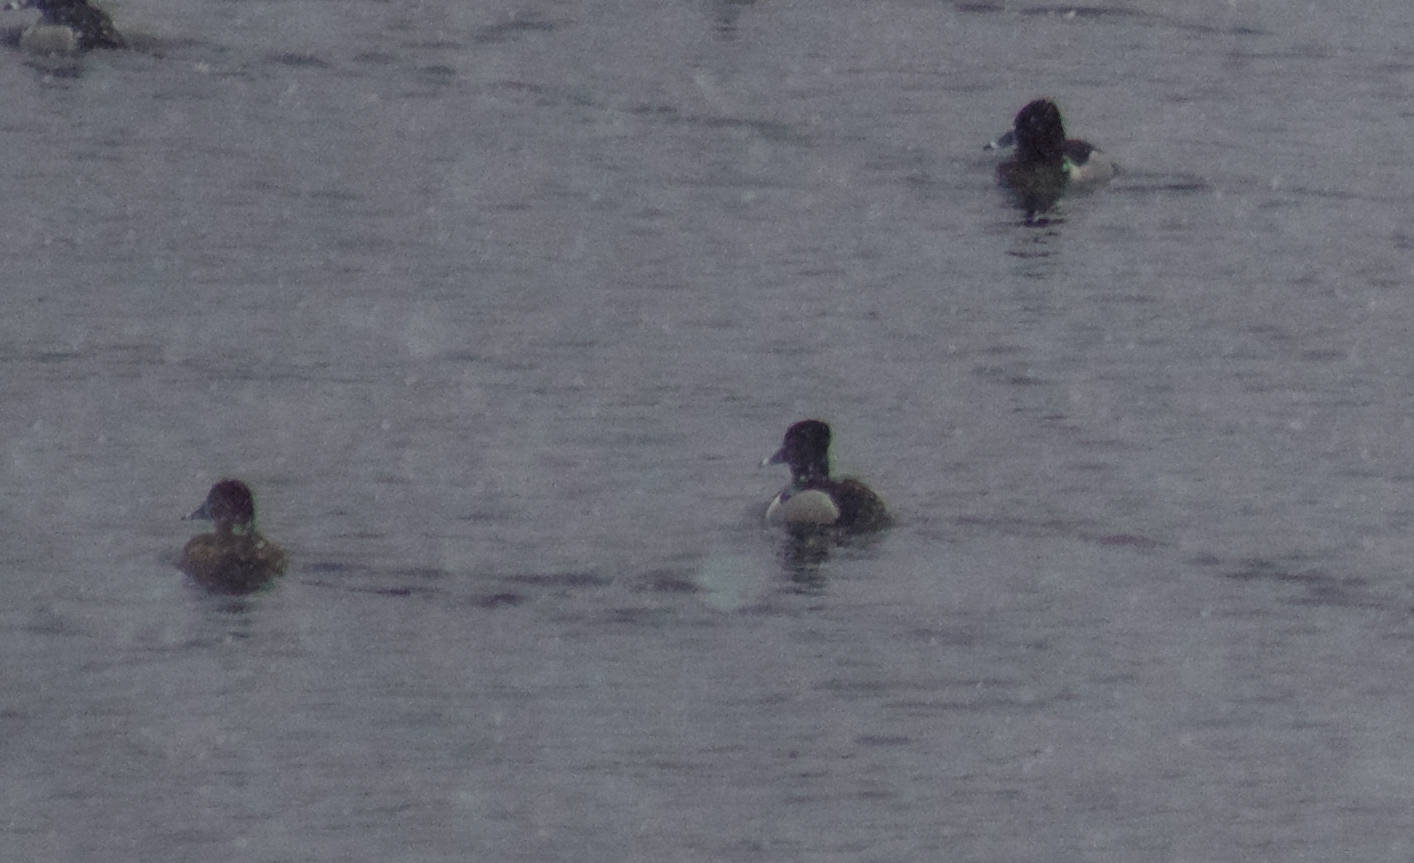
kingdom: Animalia
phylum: Chordata
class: Aves
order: Anseriformes
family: Anatidae
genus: Aythya
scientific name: Aythya collaris
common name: Ring-necked duck
